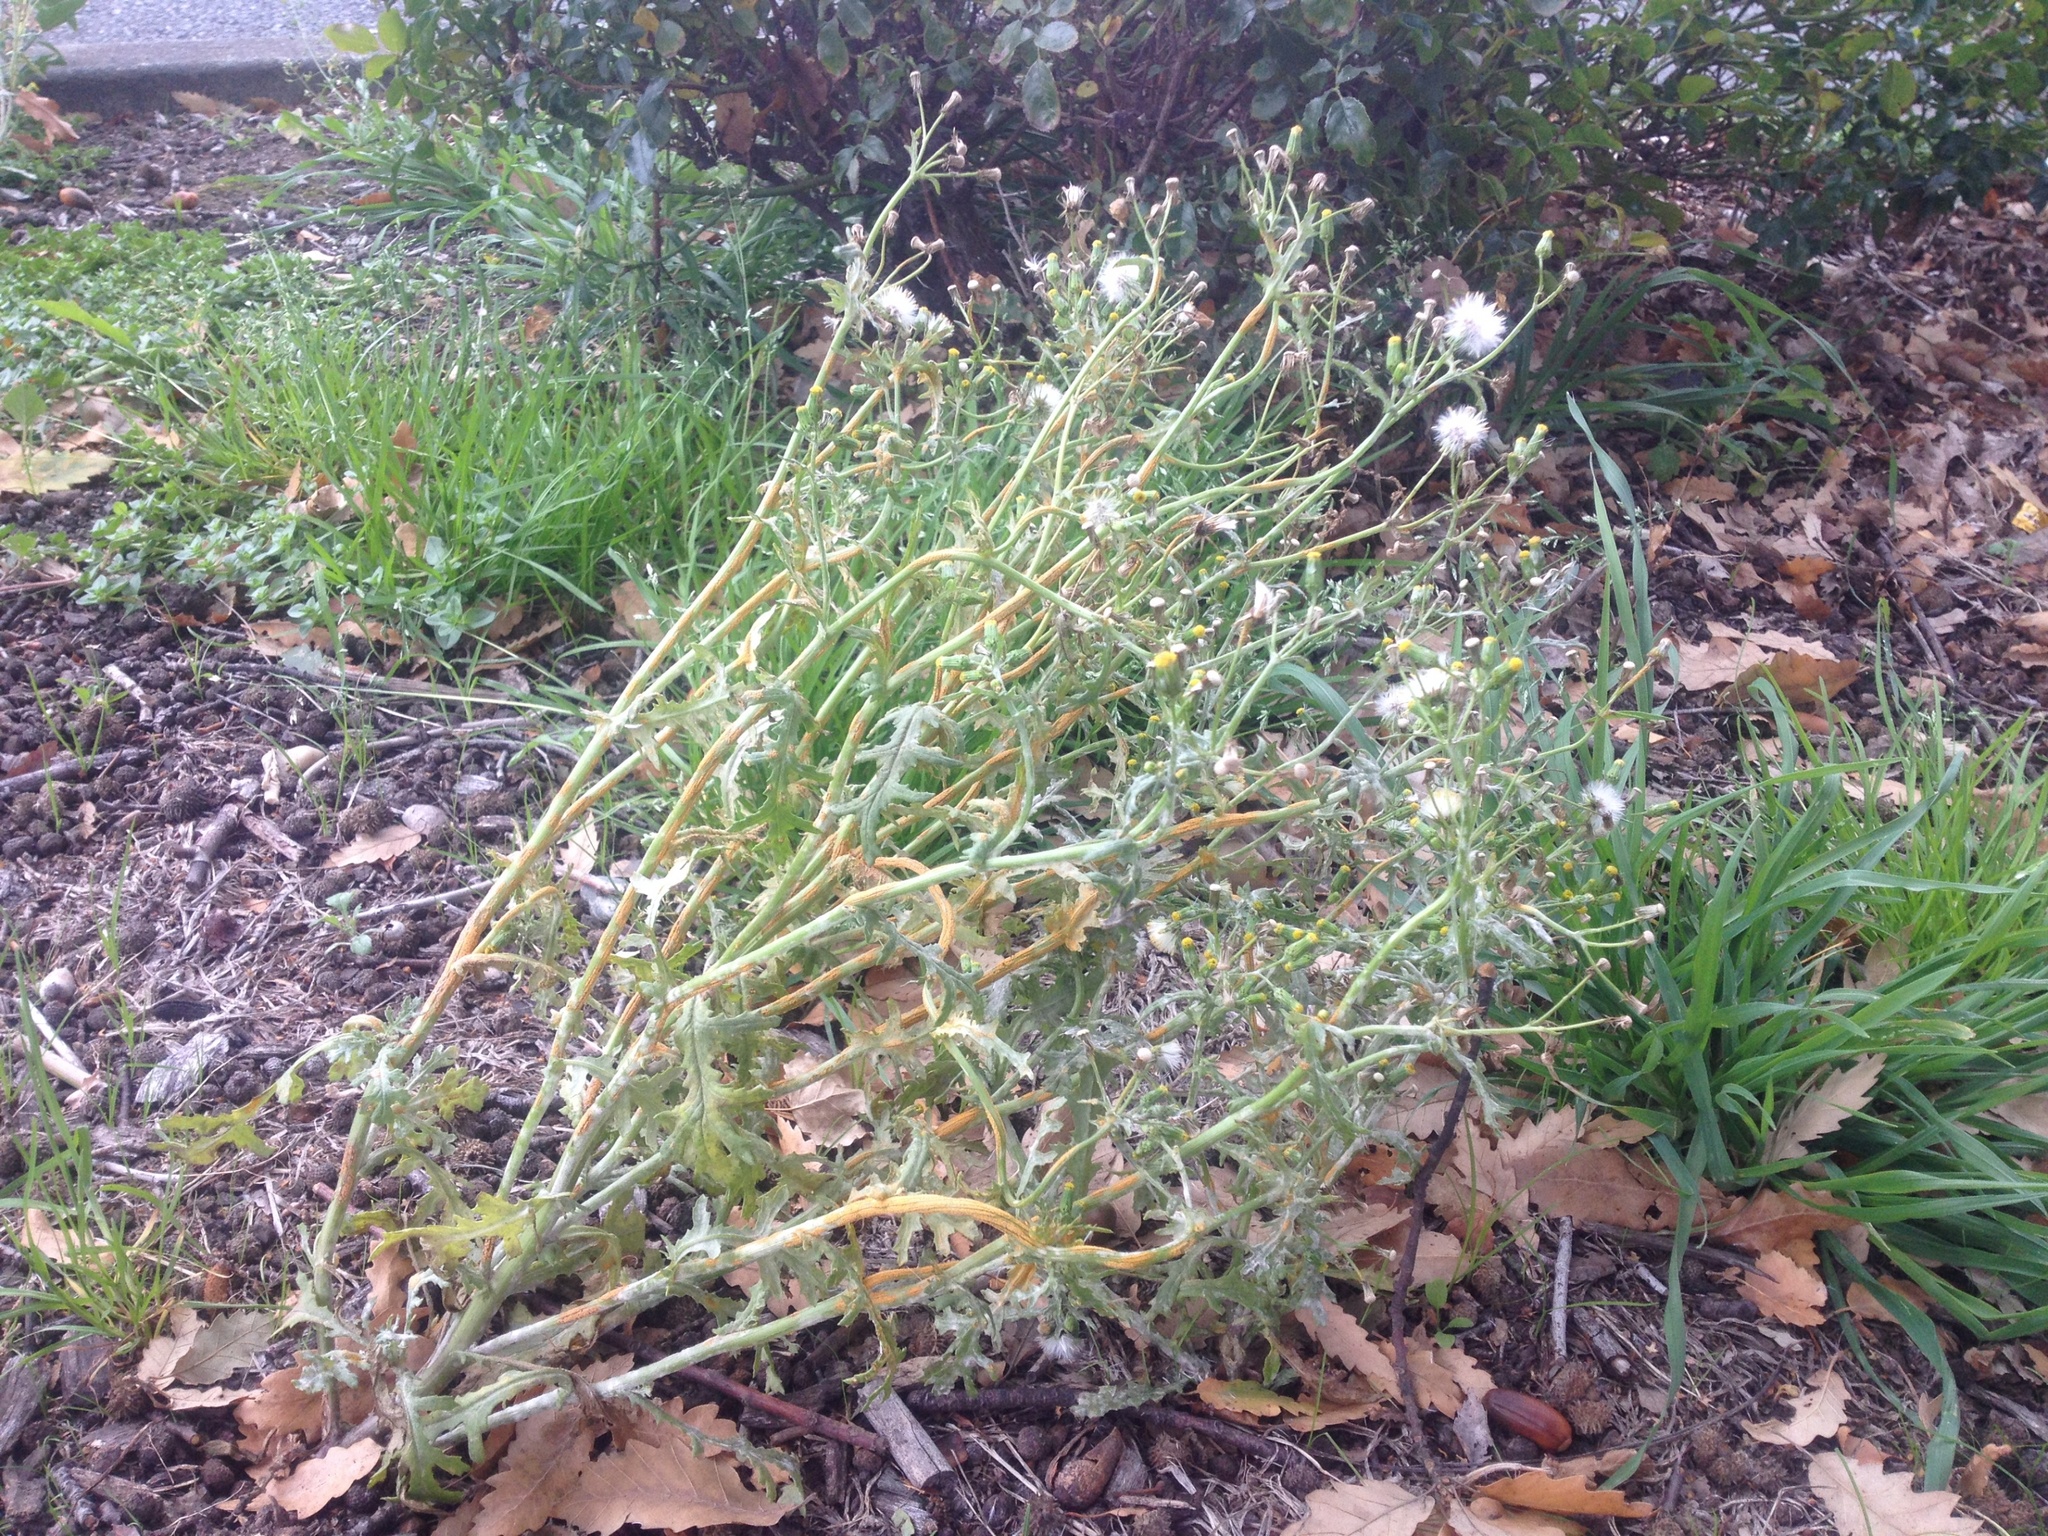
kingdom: Plantae
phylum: Tracheophyta
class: Magnoliopsida
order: Asterales
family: Asteraceae
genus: Senecio
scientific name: Senecio vulgaris
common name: Old-man-in-the-spring
